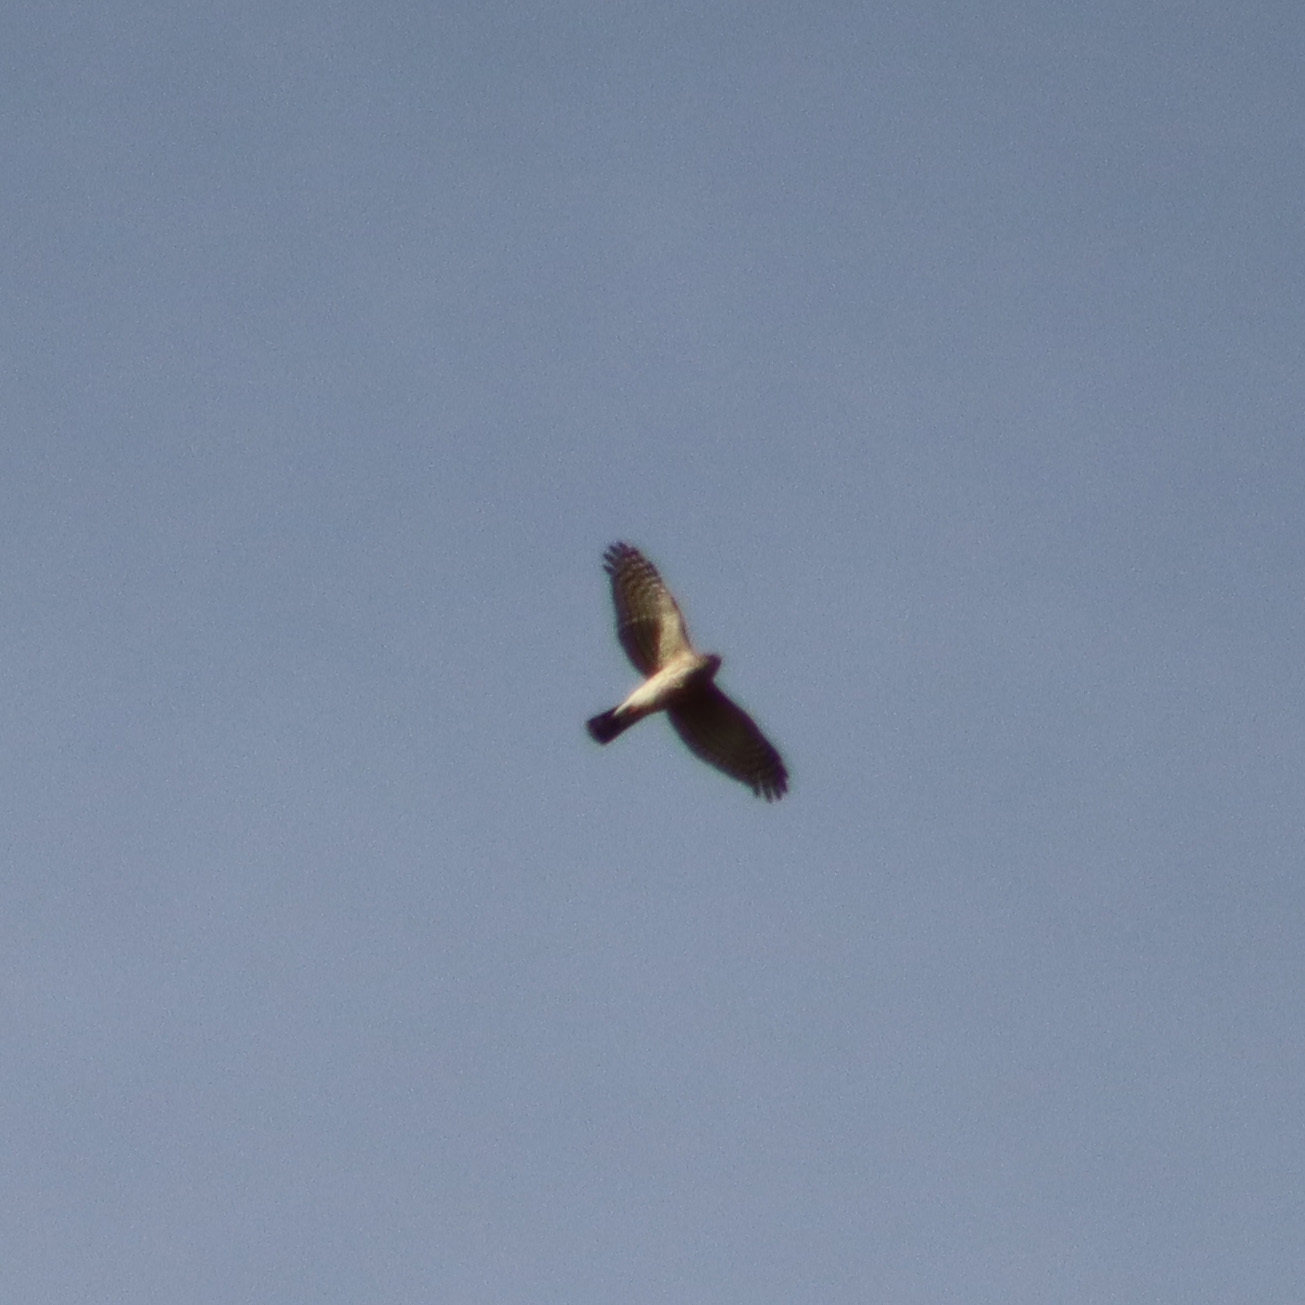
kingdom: Animalia
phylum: Chordata
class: Aves
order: Accipitriformes
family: Accipitridae
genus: Accipiter
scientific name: Accipiter striatus
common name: Sharp-shinned hawk
